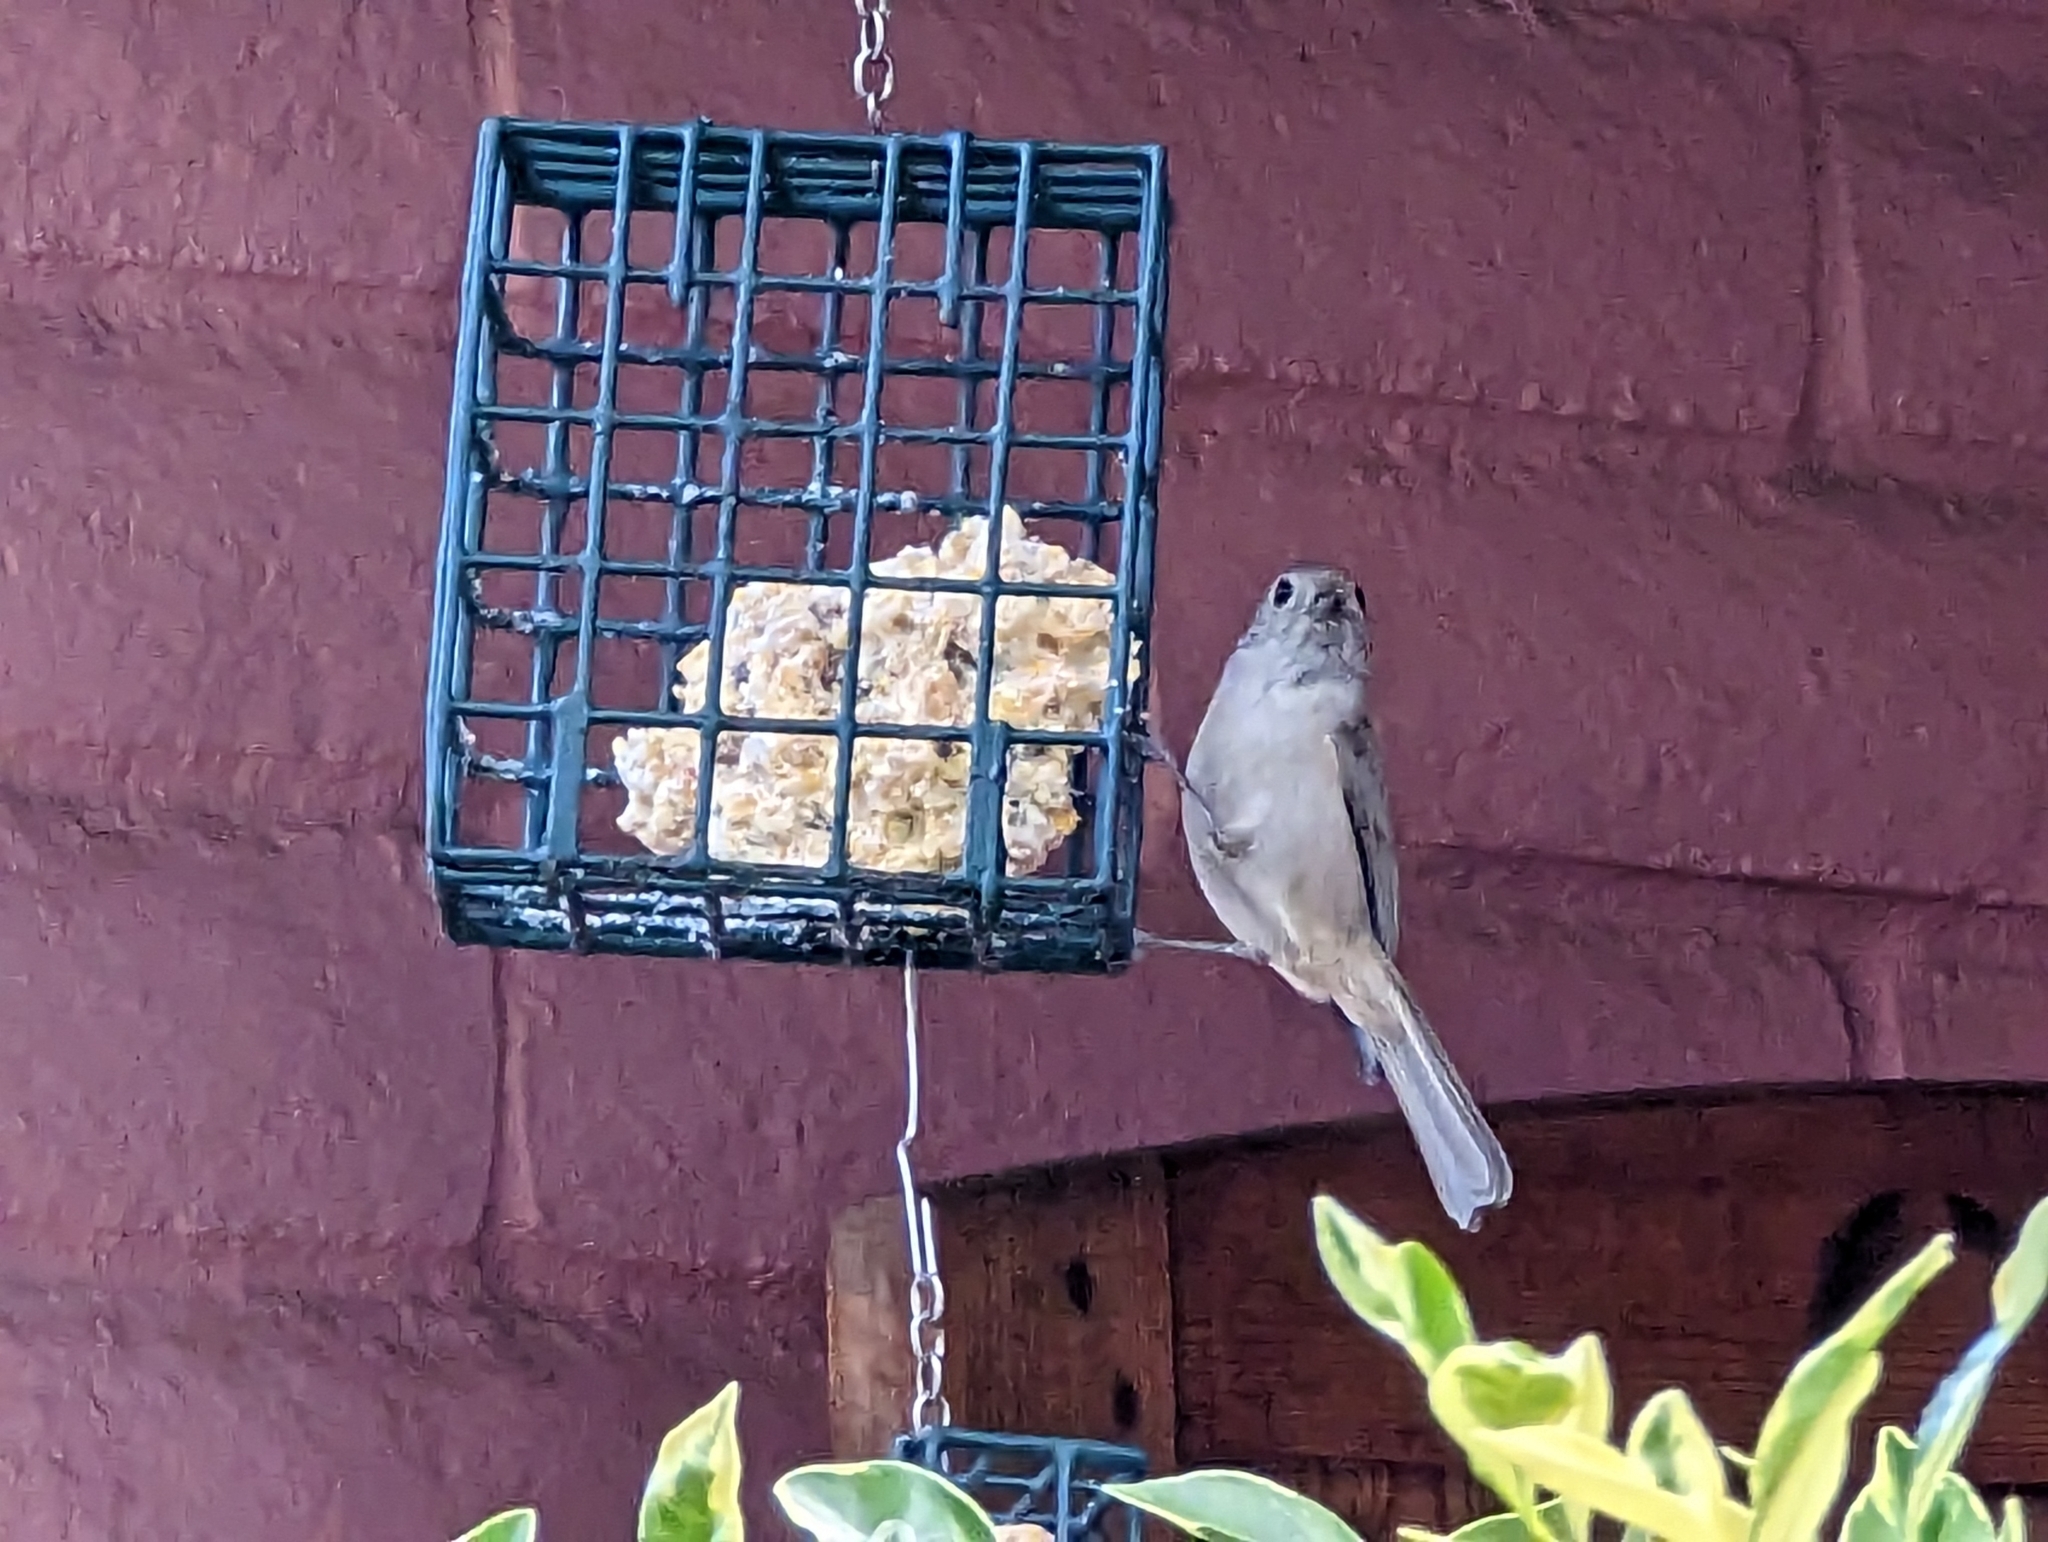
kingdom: Animalia
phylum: Chordata
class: Aves
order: Passeriformes
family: Paridae
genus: Baeolophus
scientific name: Baeolophus inornatus
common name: Oak titmouse
